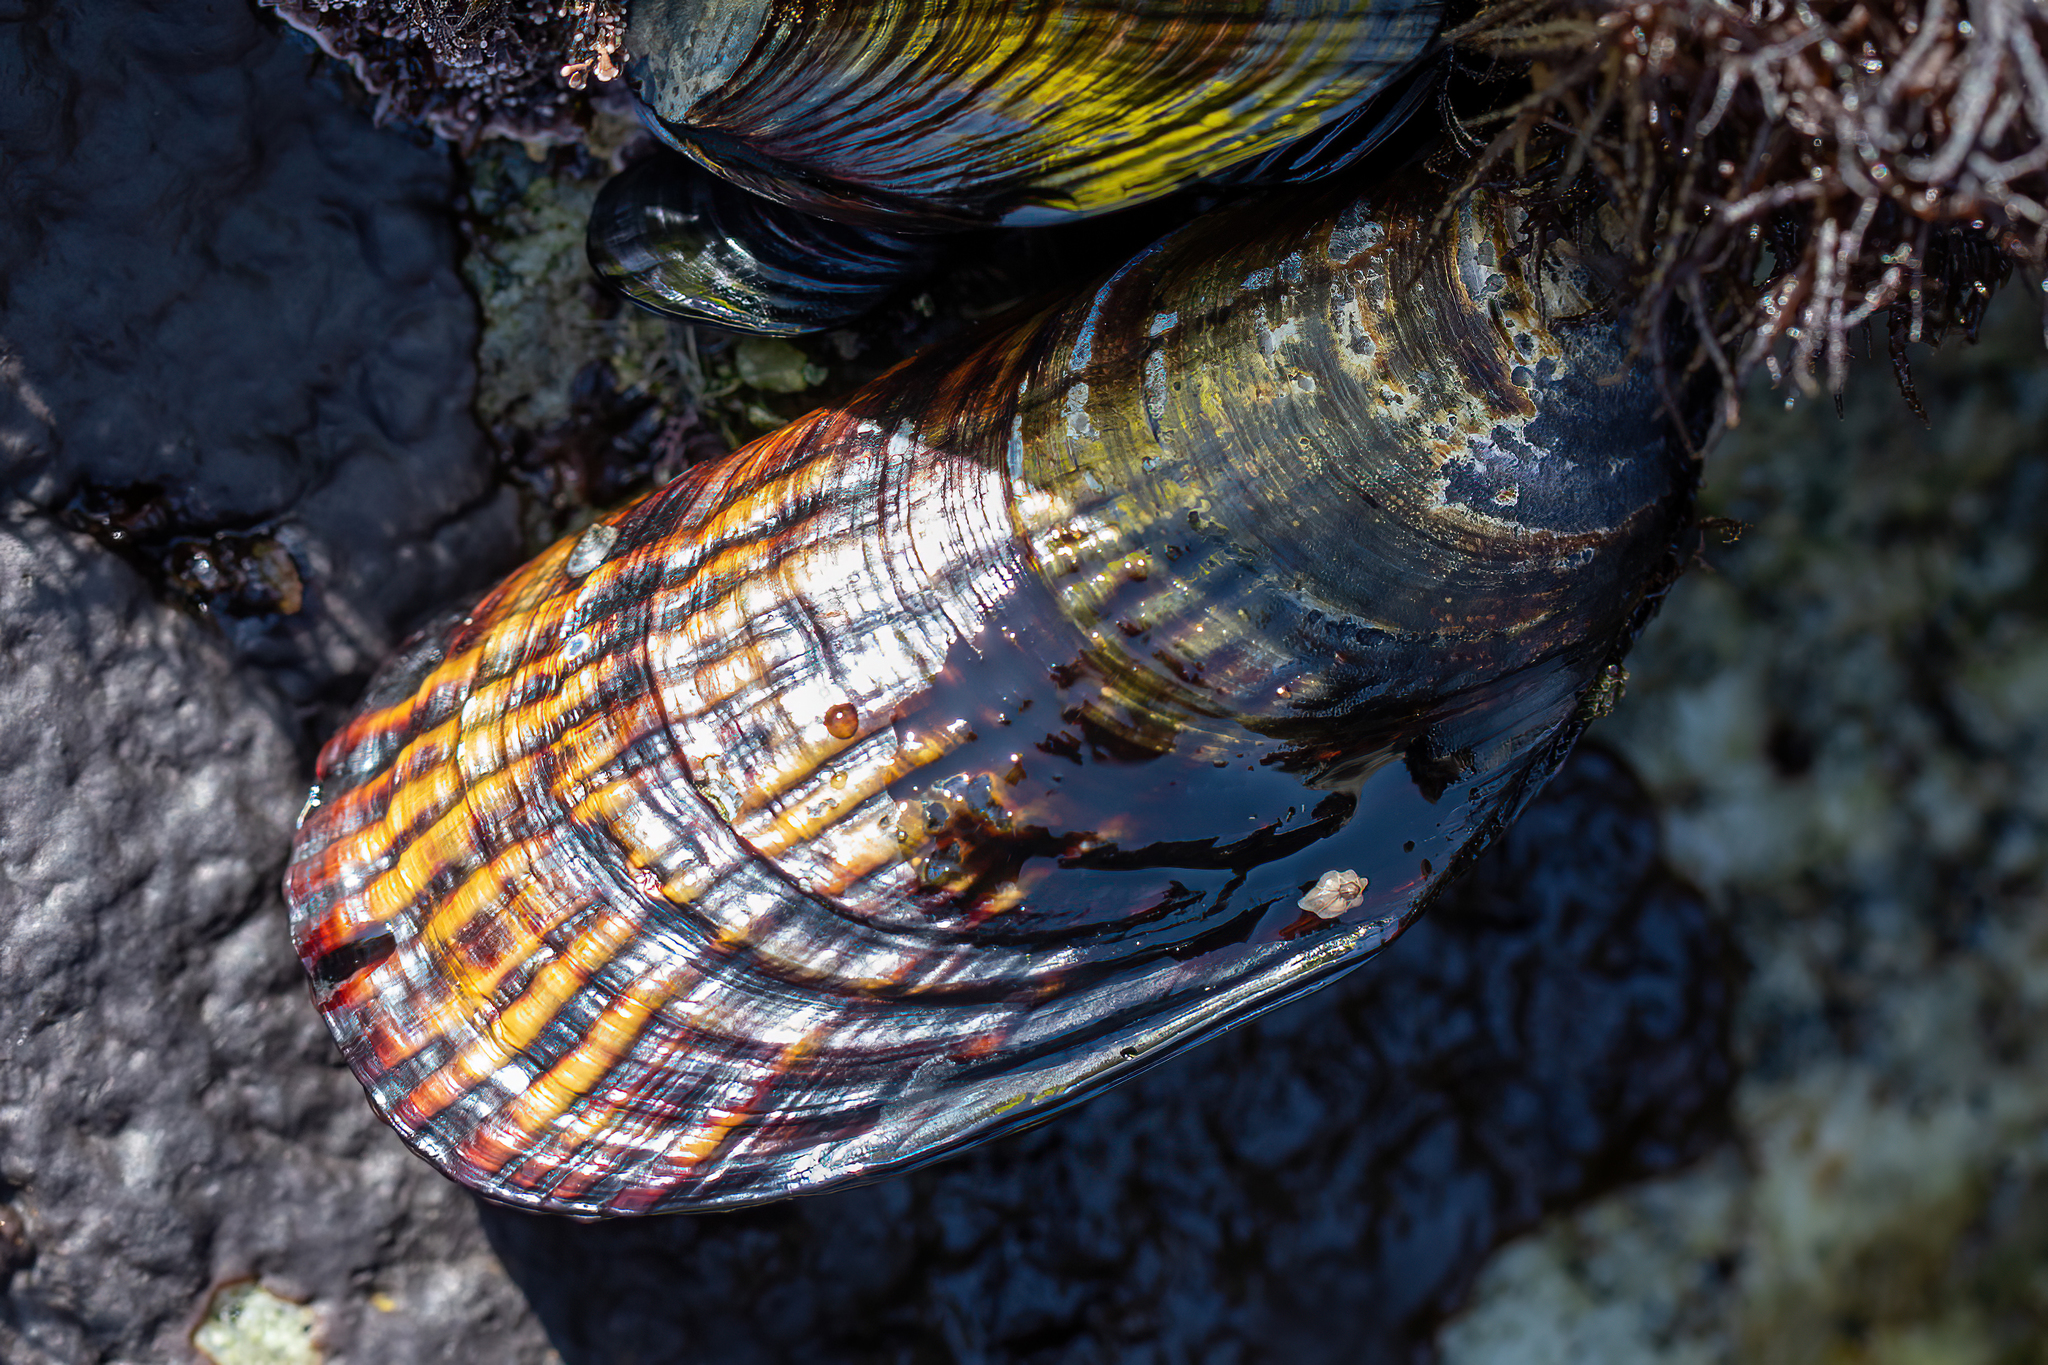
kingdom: Animalia
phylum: Mollusca
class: Bivalvia
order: Mytilida
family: Mytilidae
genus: Mytilus
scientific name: Mytilus californianus
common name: California mussel
